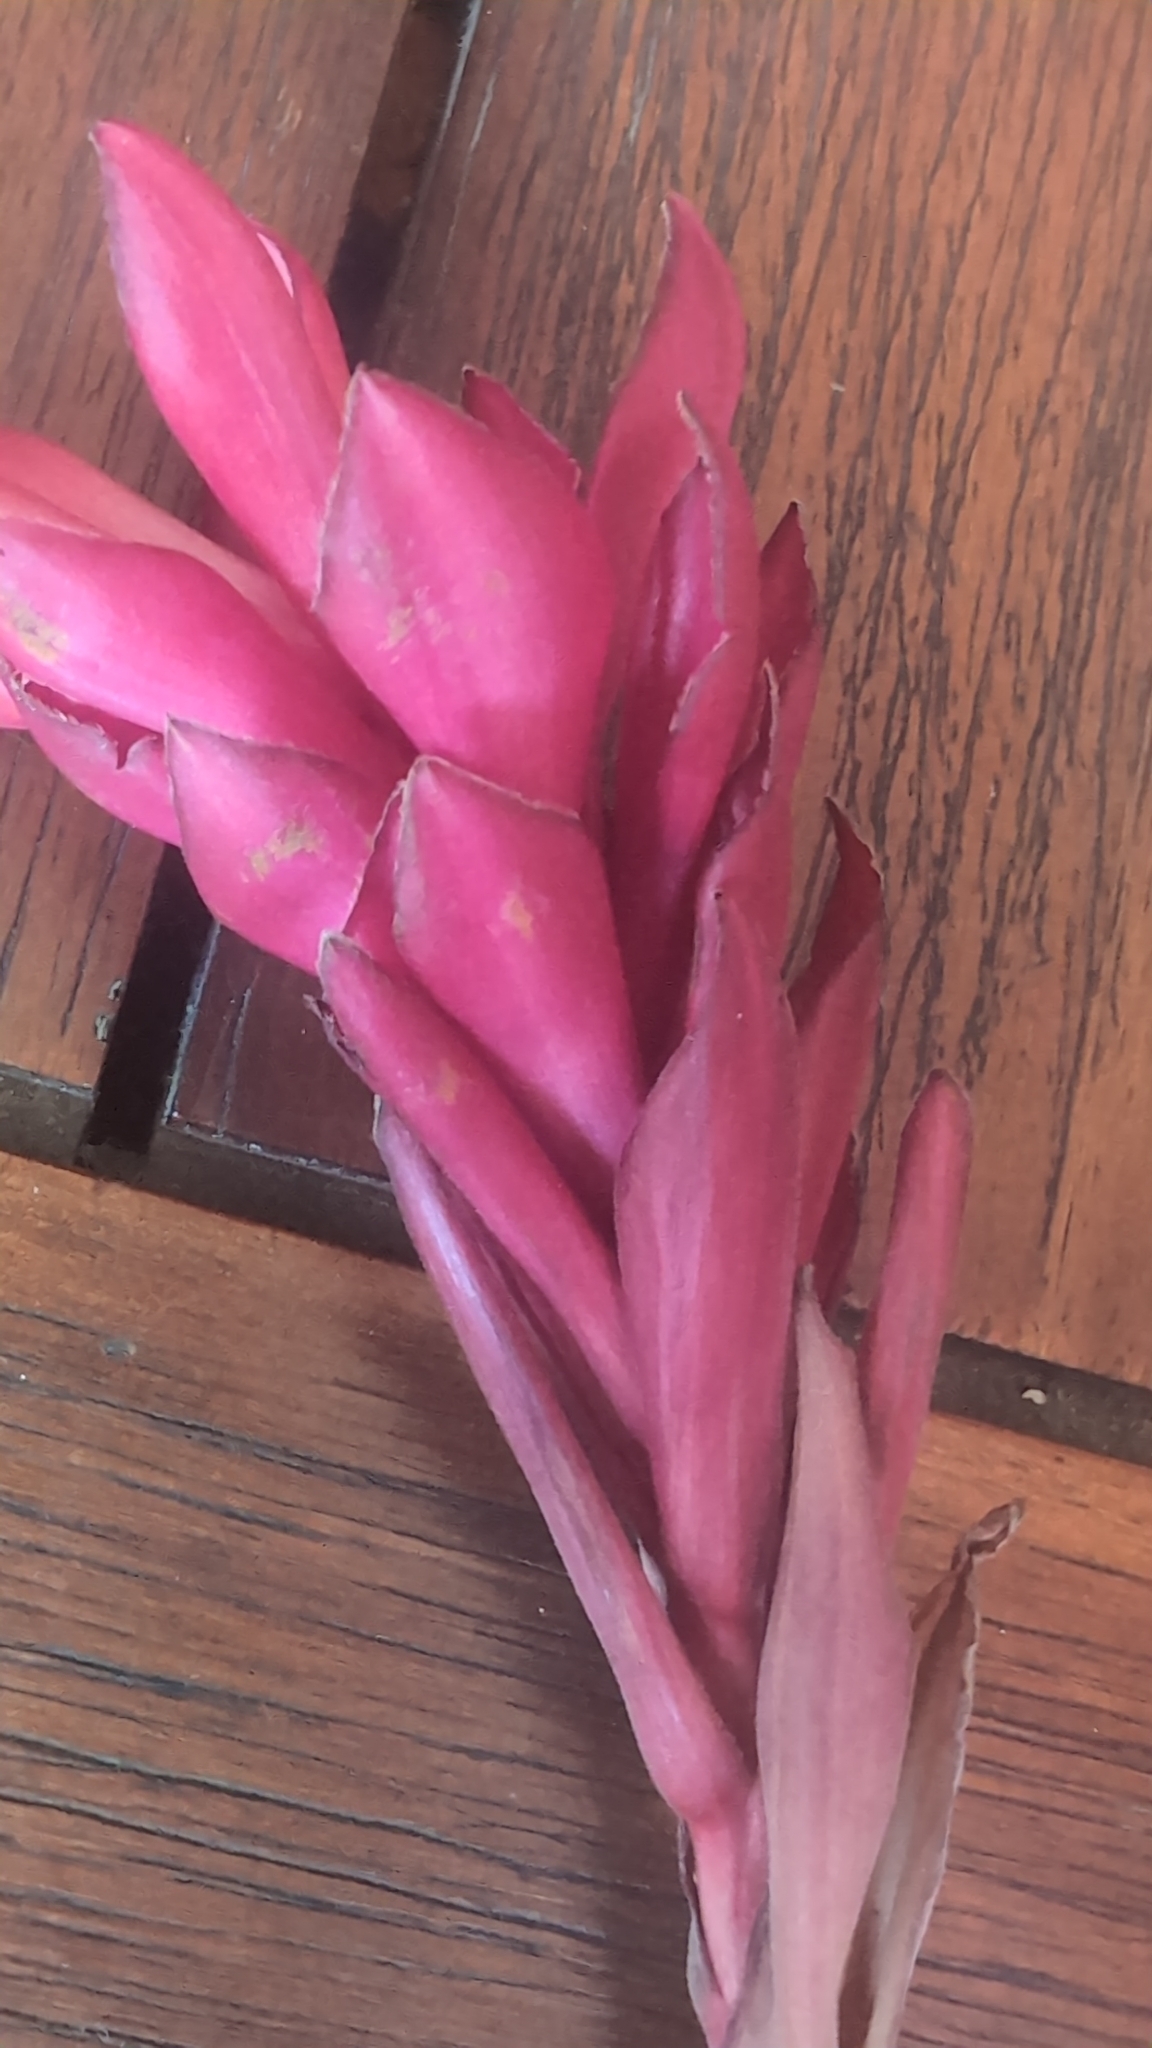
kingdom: Plantae
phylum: Tracheophyta
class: Liliopsida
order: Zingiberales
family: Zingiberaceae
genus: Alpinia
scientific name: Alpinia purpurata
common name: Red ginger
